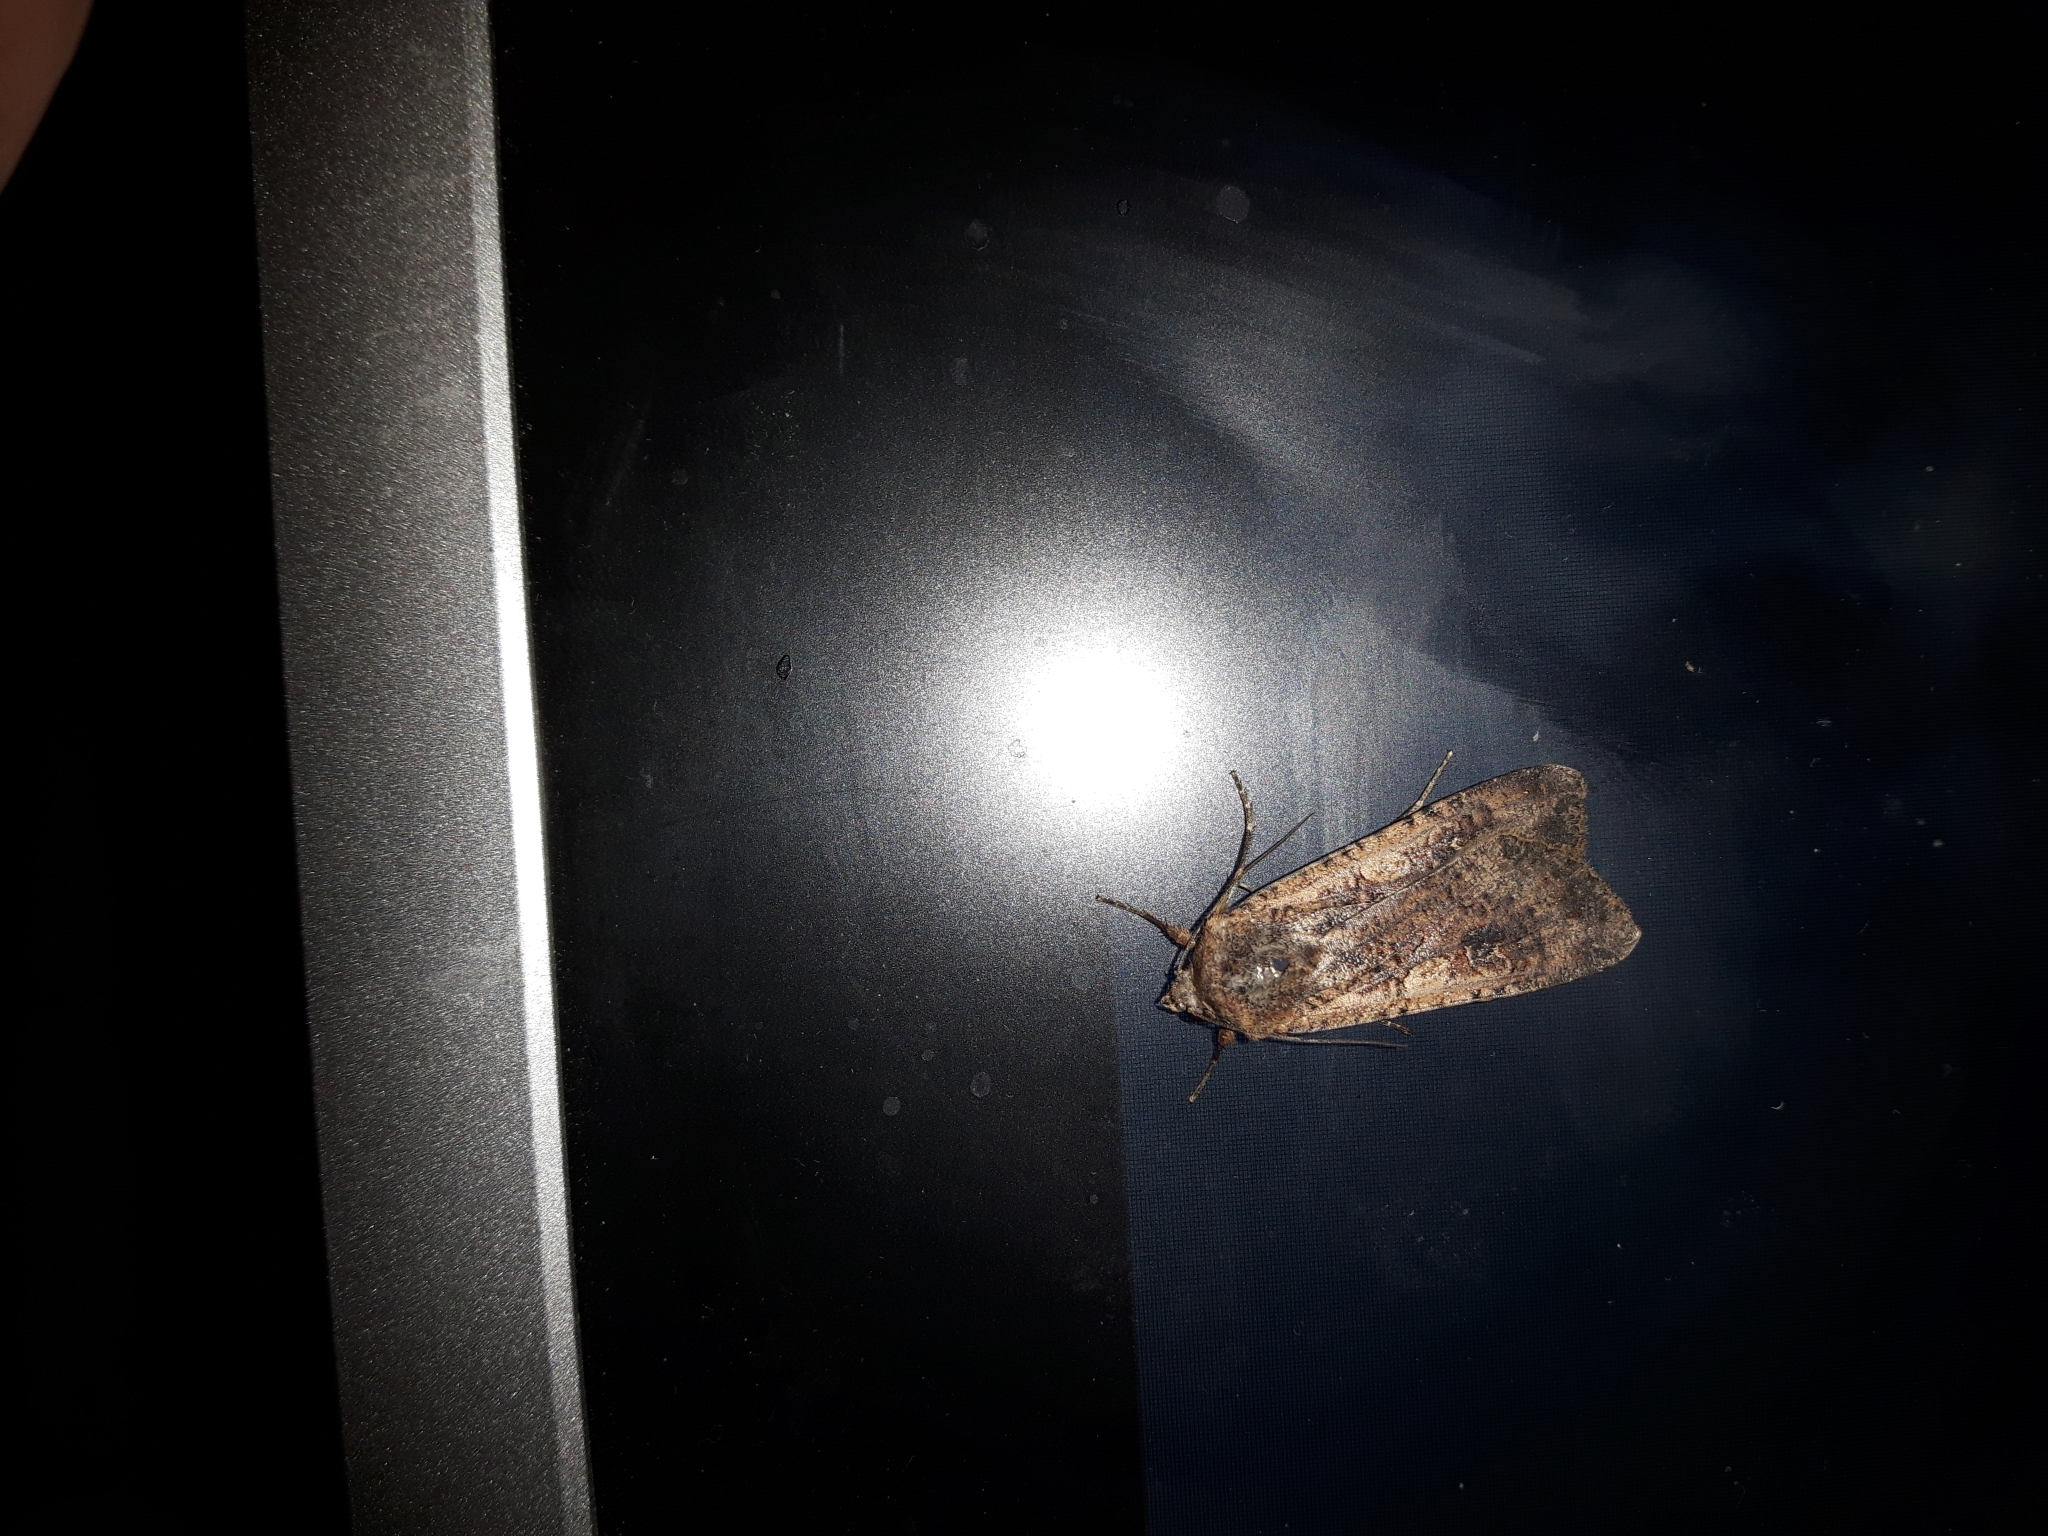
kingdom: Animalia
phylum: Arthropoda
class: Insecta
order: Lepidoptera
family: Noctuidae
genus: Peridroma
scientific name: Peridroma saucia
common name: Pearly underwing
